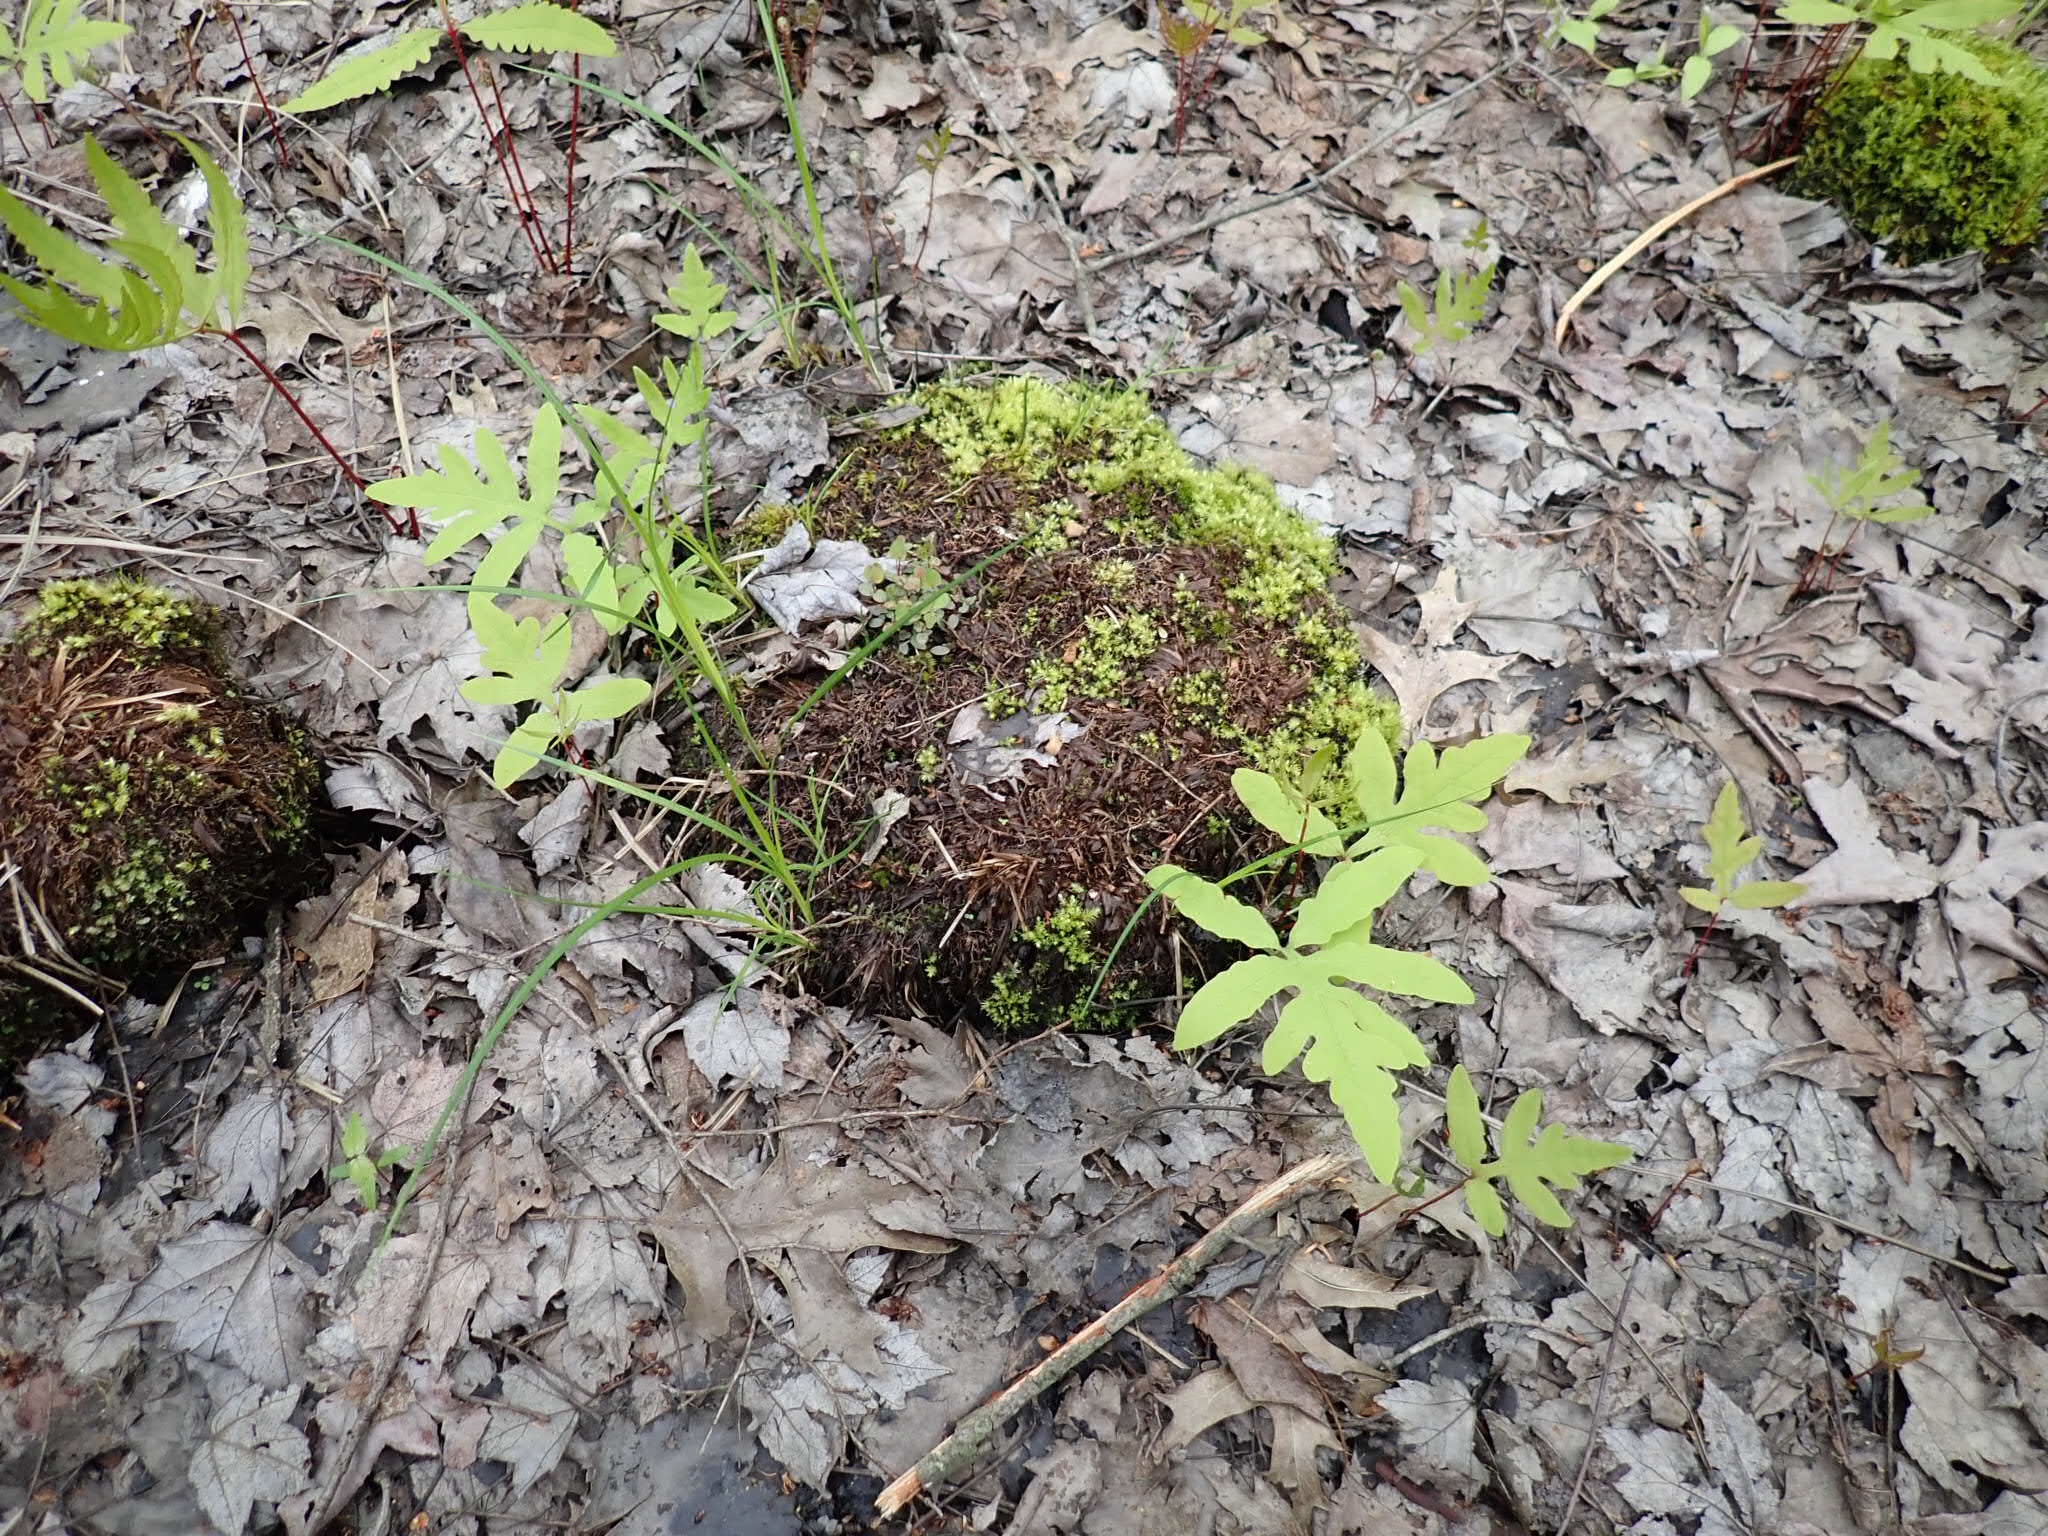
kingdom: Plantae
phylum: Tracheophyta
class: Polypodiopsida
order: Polypodiales
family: Onocleaceae
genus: Onoclea
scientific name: Onoclea sensibilis
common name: Sensitive fern
